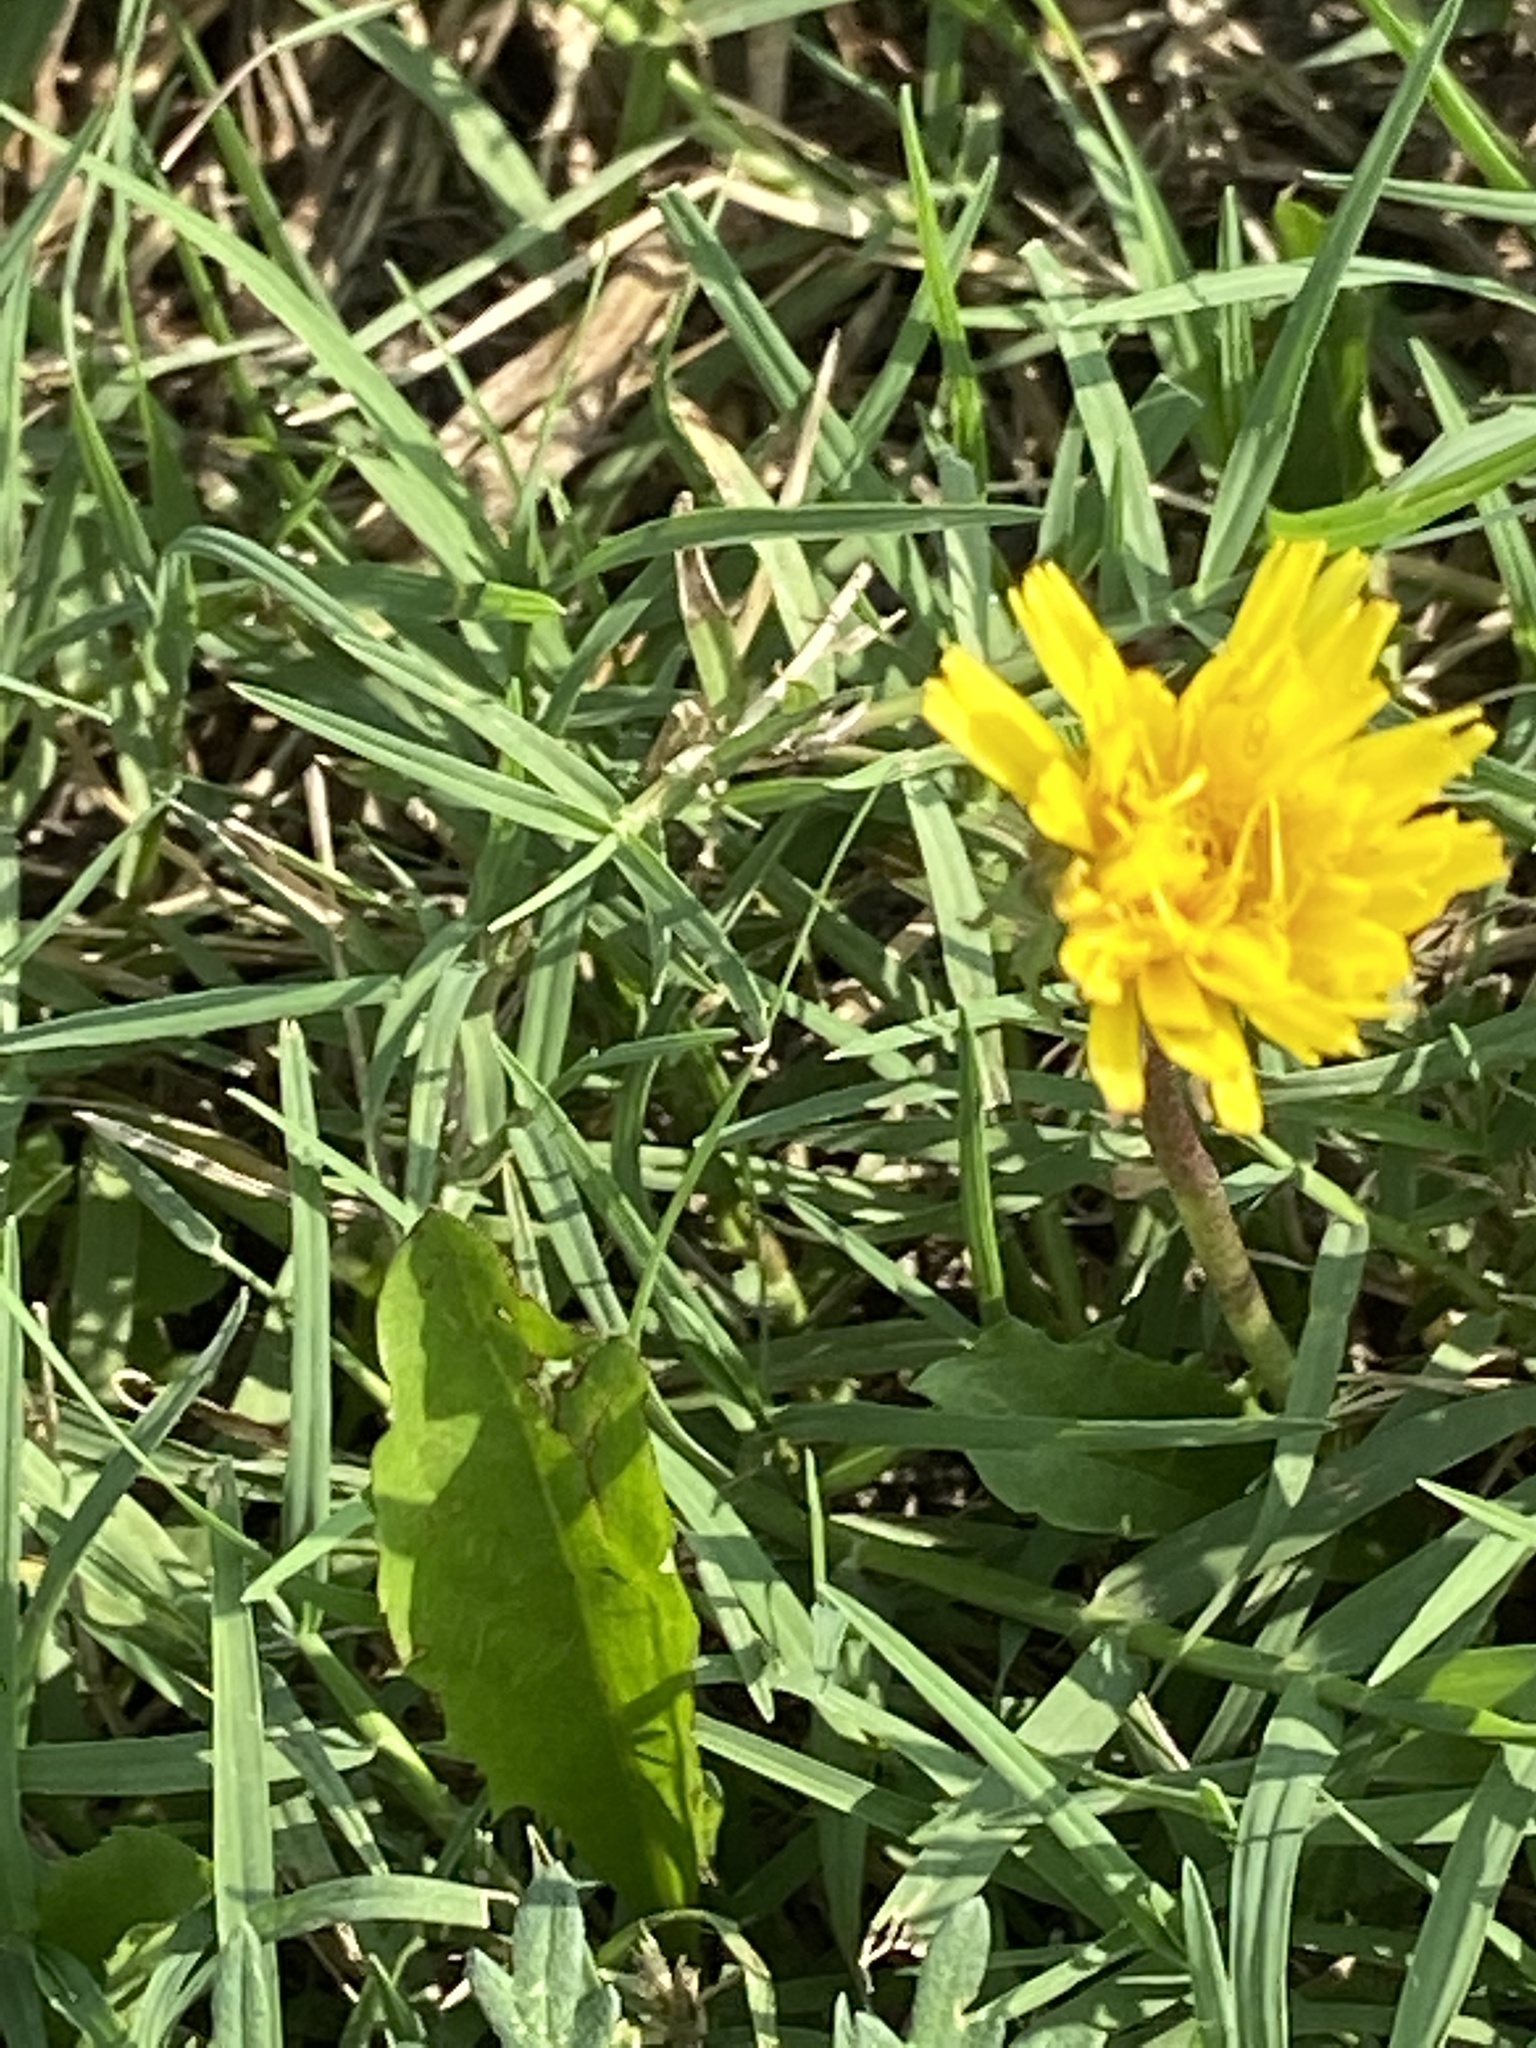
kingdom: Plantae
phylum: Tracheophyta
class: Magnoliopsida
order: Asterales
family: Asteraceae
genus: Taraxacum
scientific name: Taraxacum officinale
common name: Common dandelion
